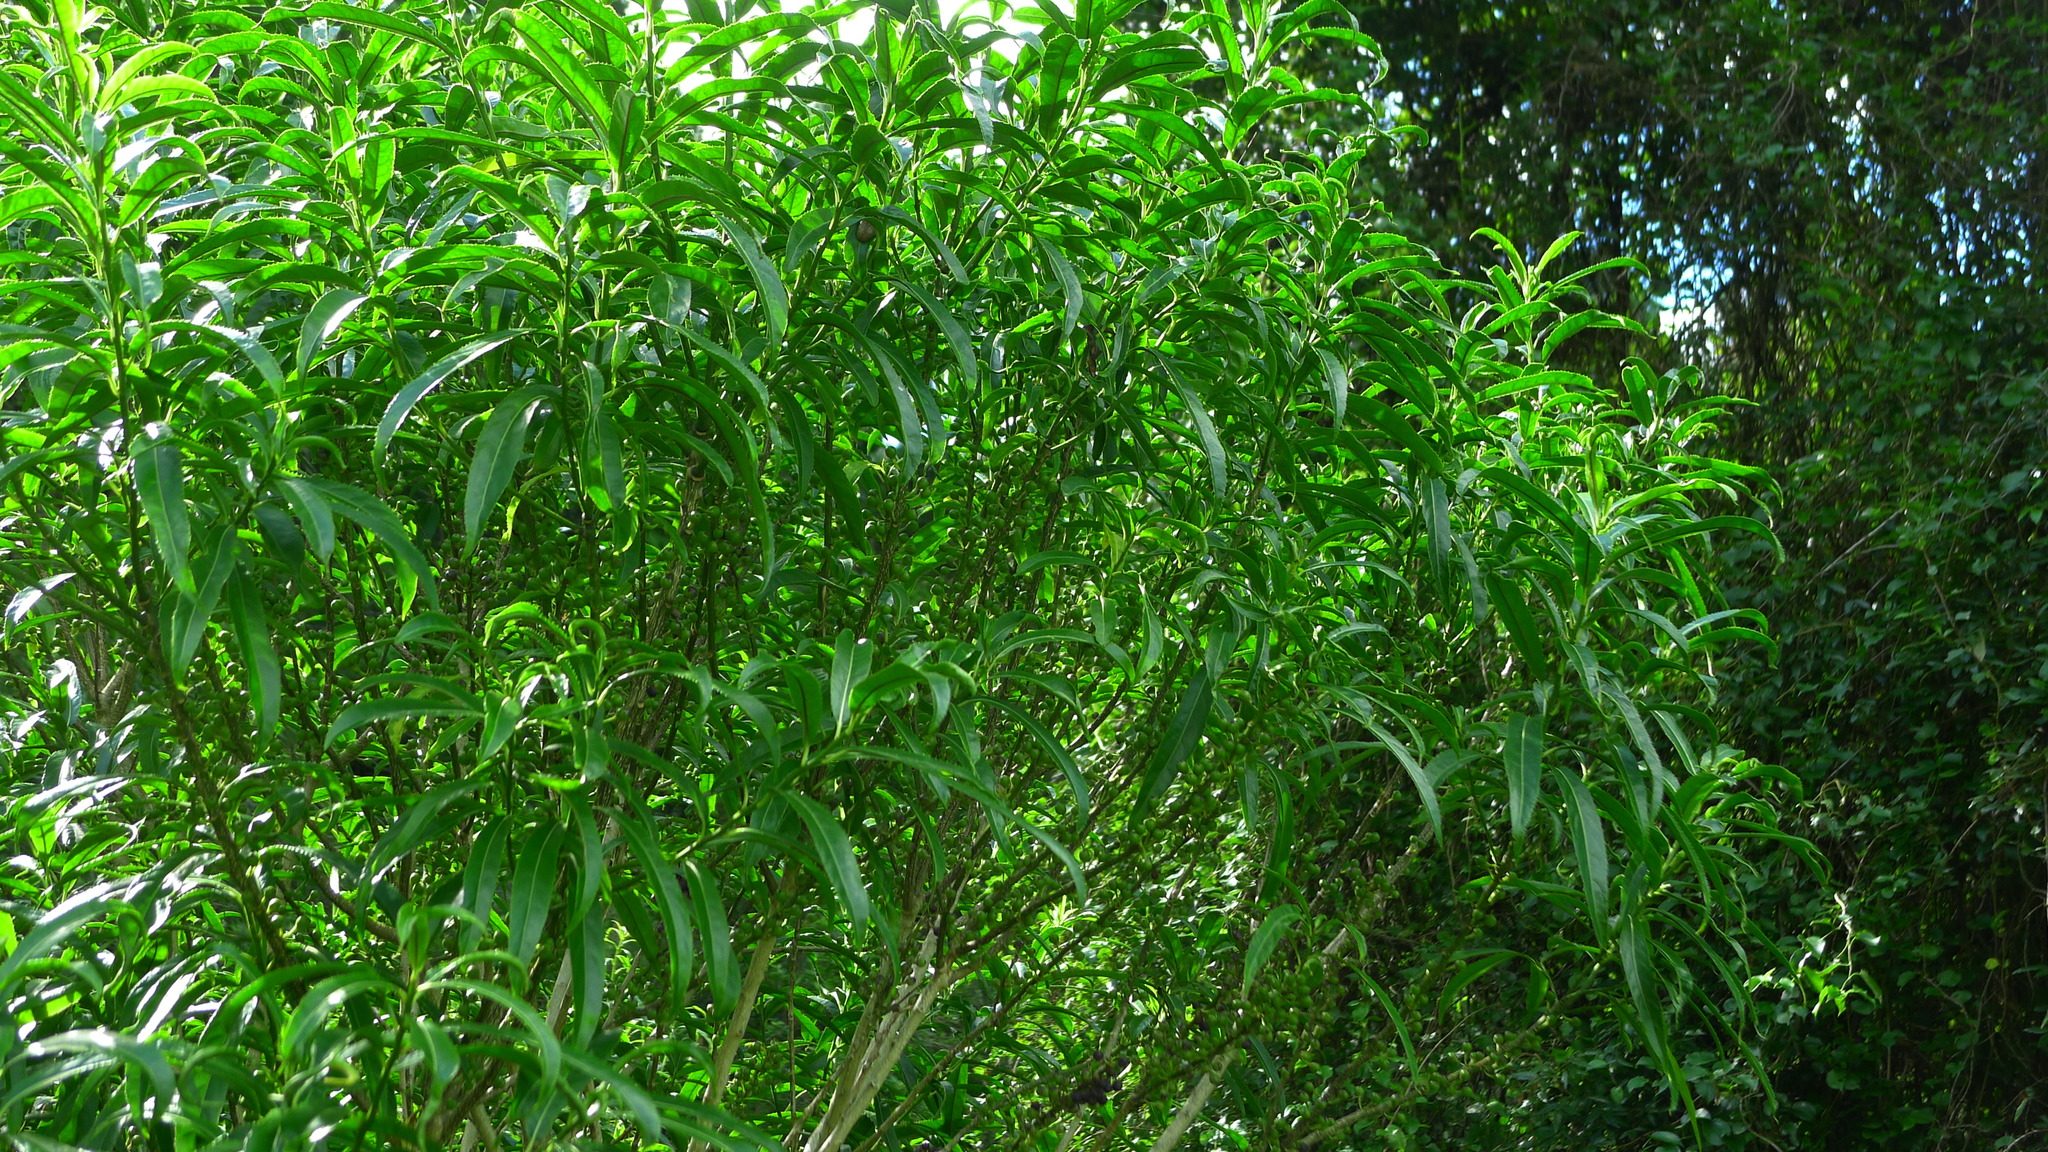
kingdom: Plantae
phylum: Tracheophyta
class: Magnoliopsida
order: Malpighiales
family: Violaceae
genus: Melicytus
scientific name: Melicytus lanceolatus
